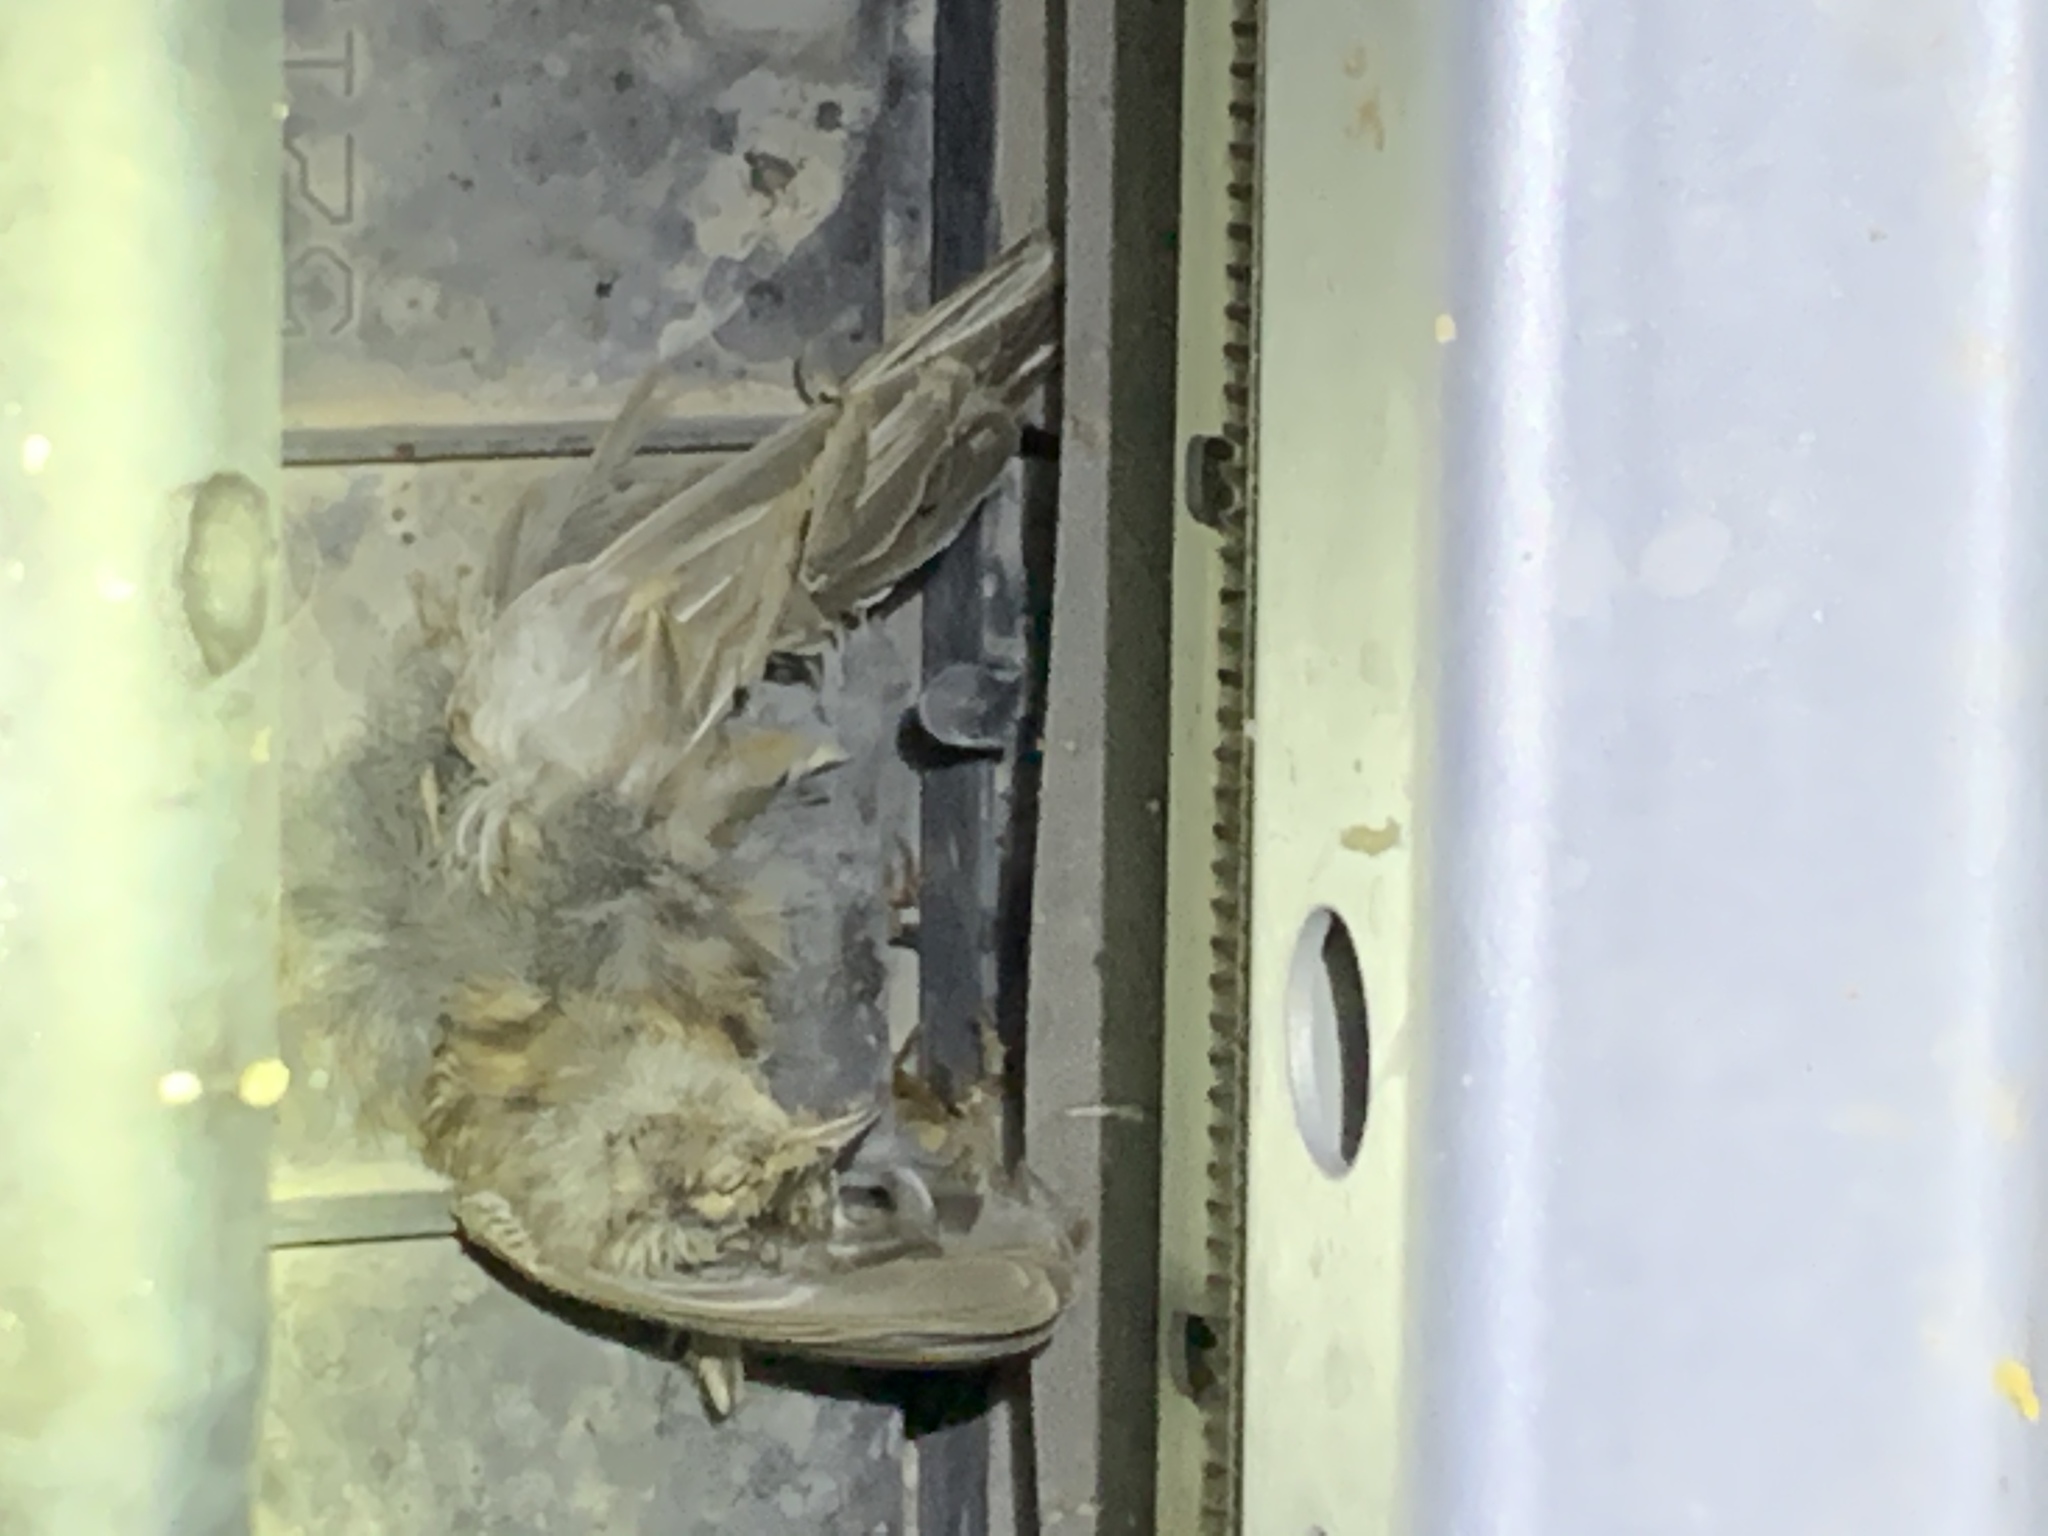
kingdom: Animalia
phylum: Chordata
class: Aves
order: Passeriformes
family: Passeridae
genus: Passer
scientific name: Passer domesticus
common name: House sparrow
